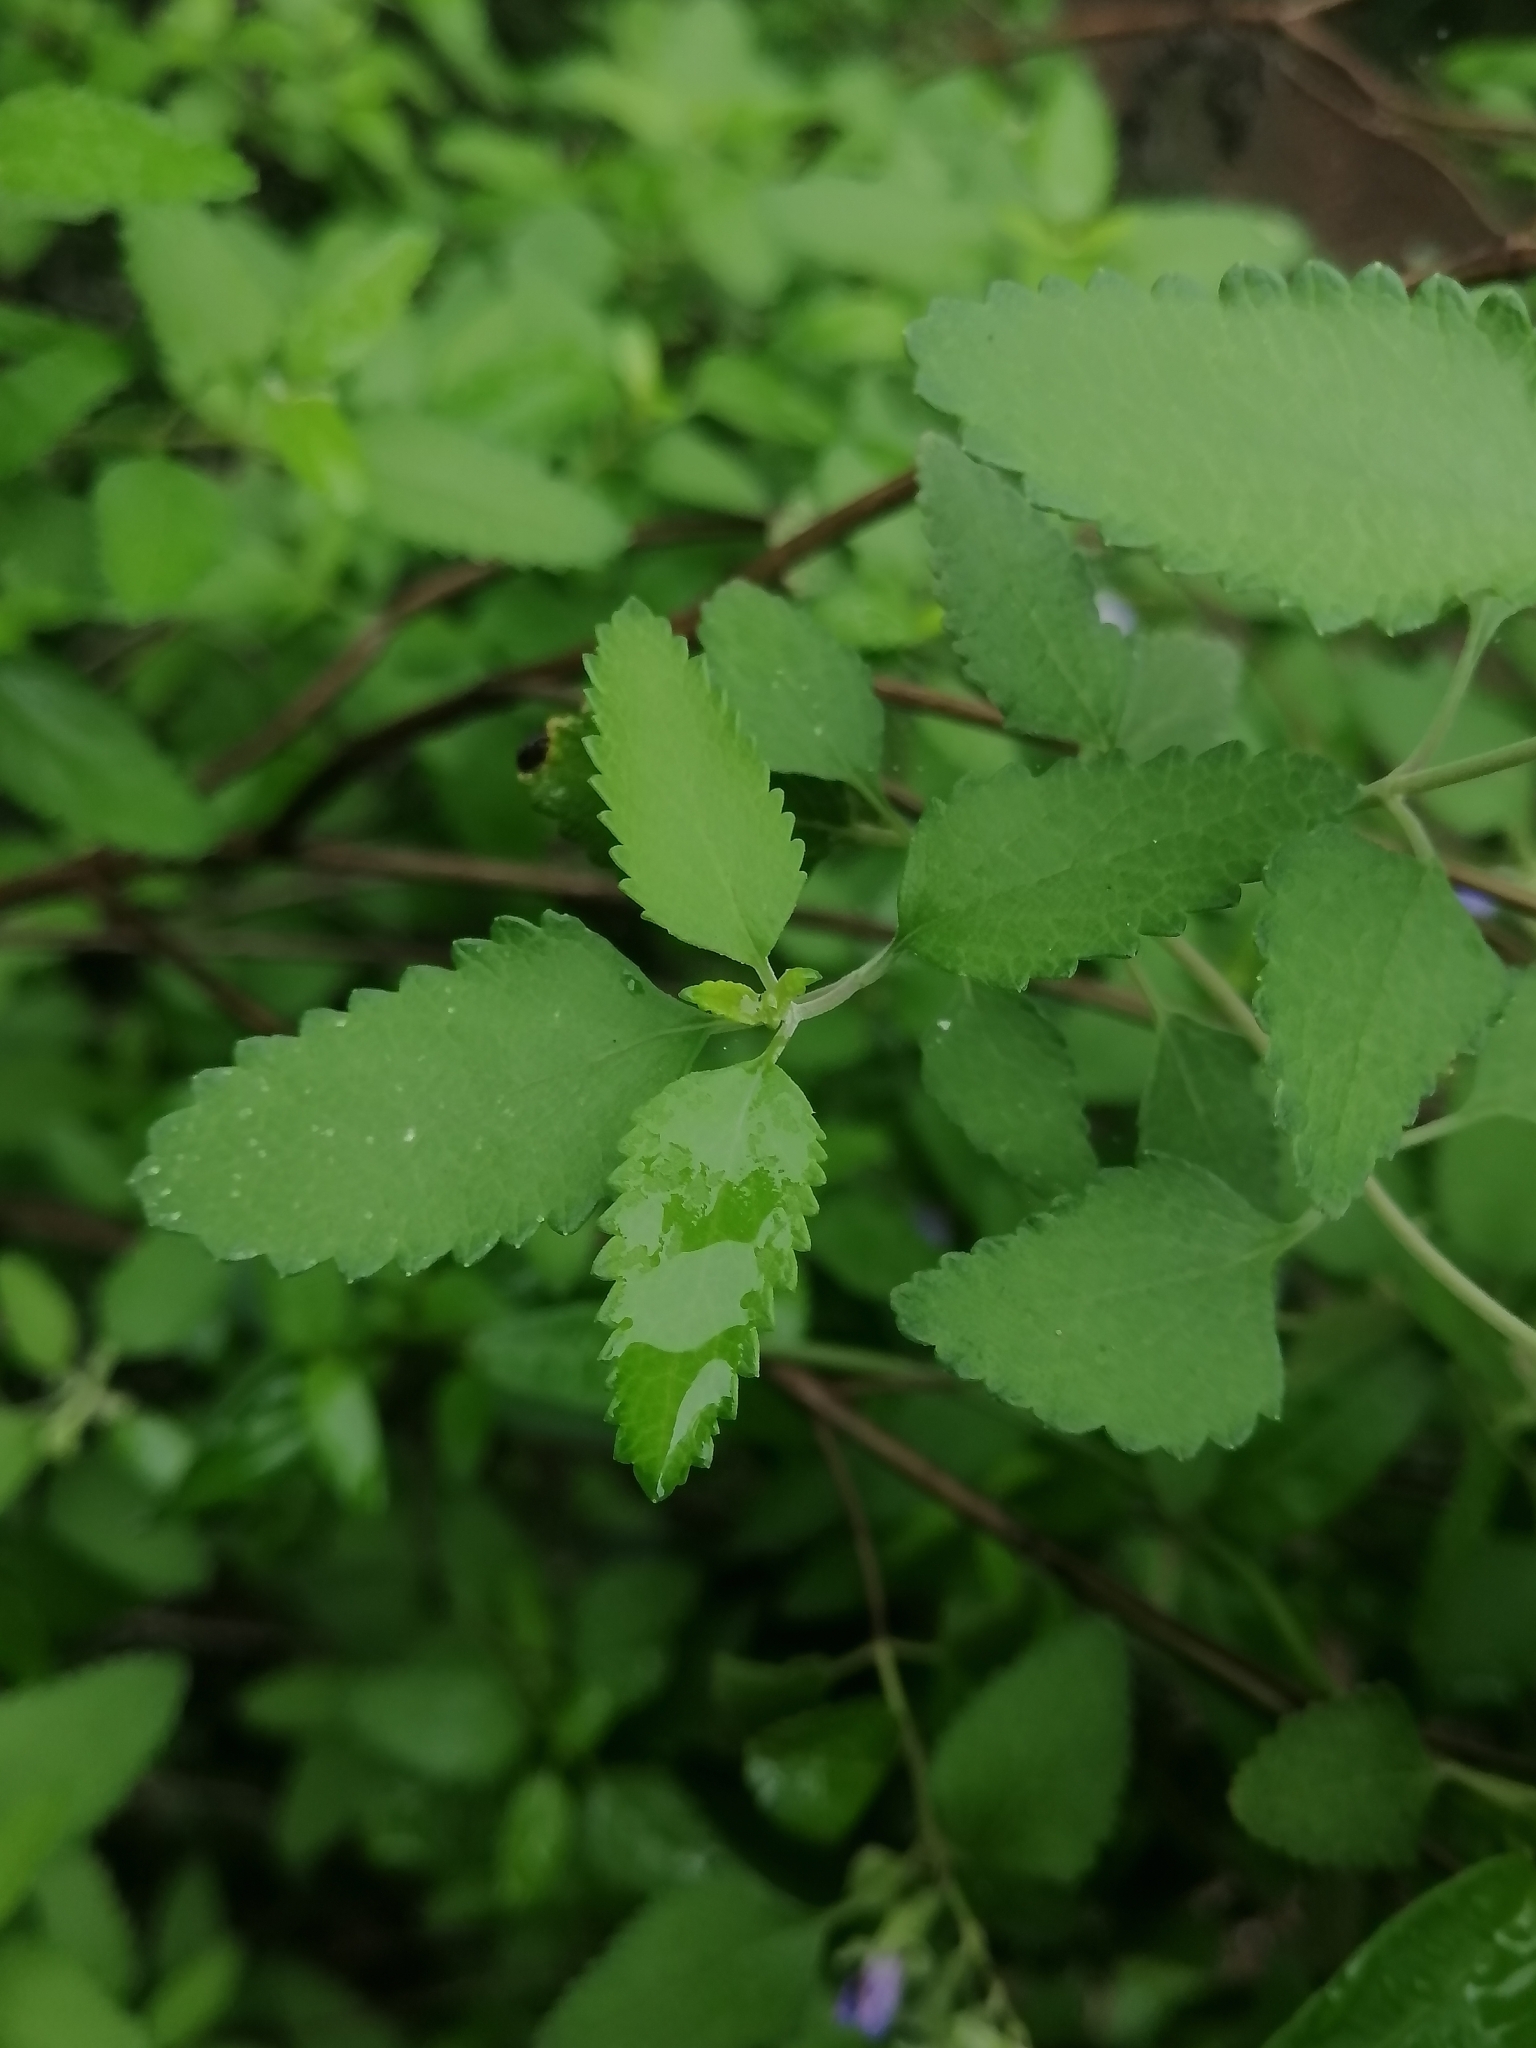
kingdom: Plantae
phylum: Tracheophyta
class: Magnoliopsida
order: Lamiales
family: Lamiaceae
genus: Salvia
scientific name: Salvia ballotiflora
